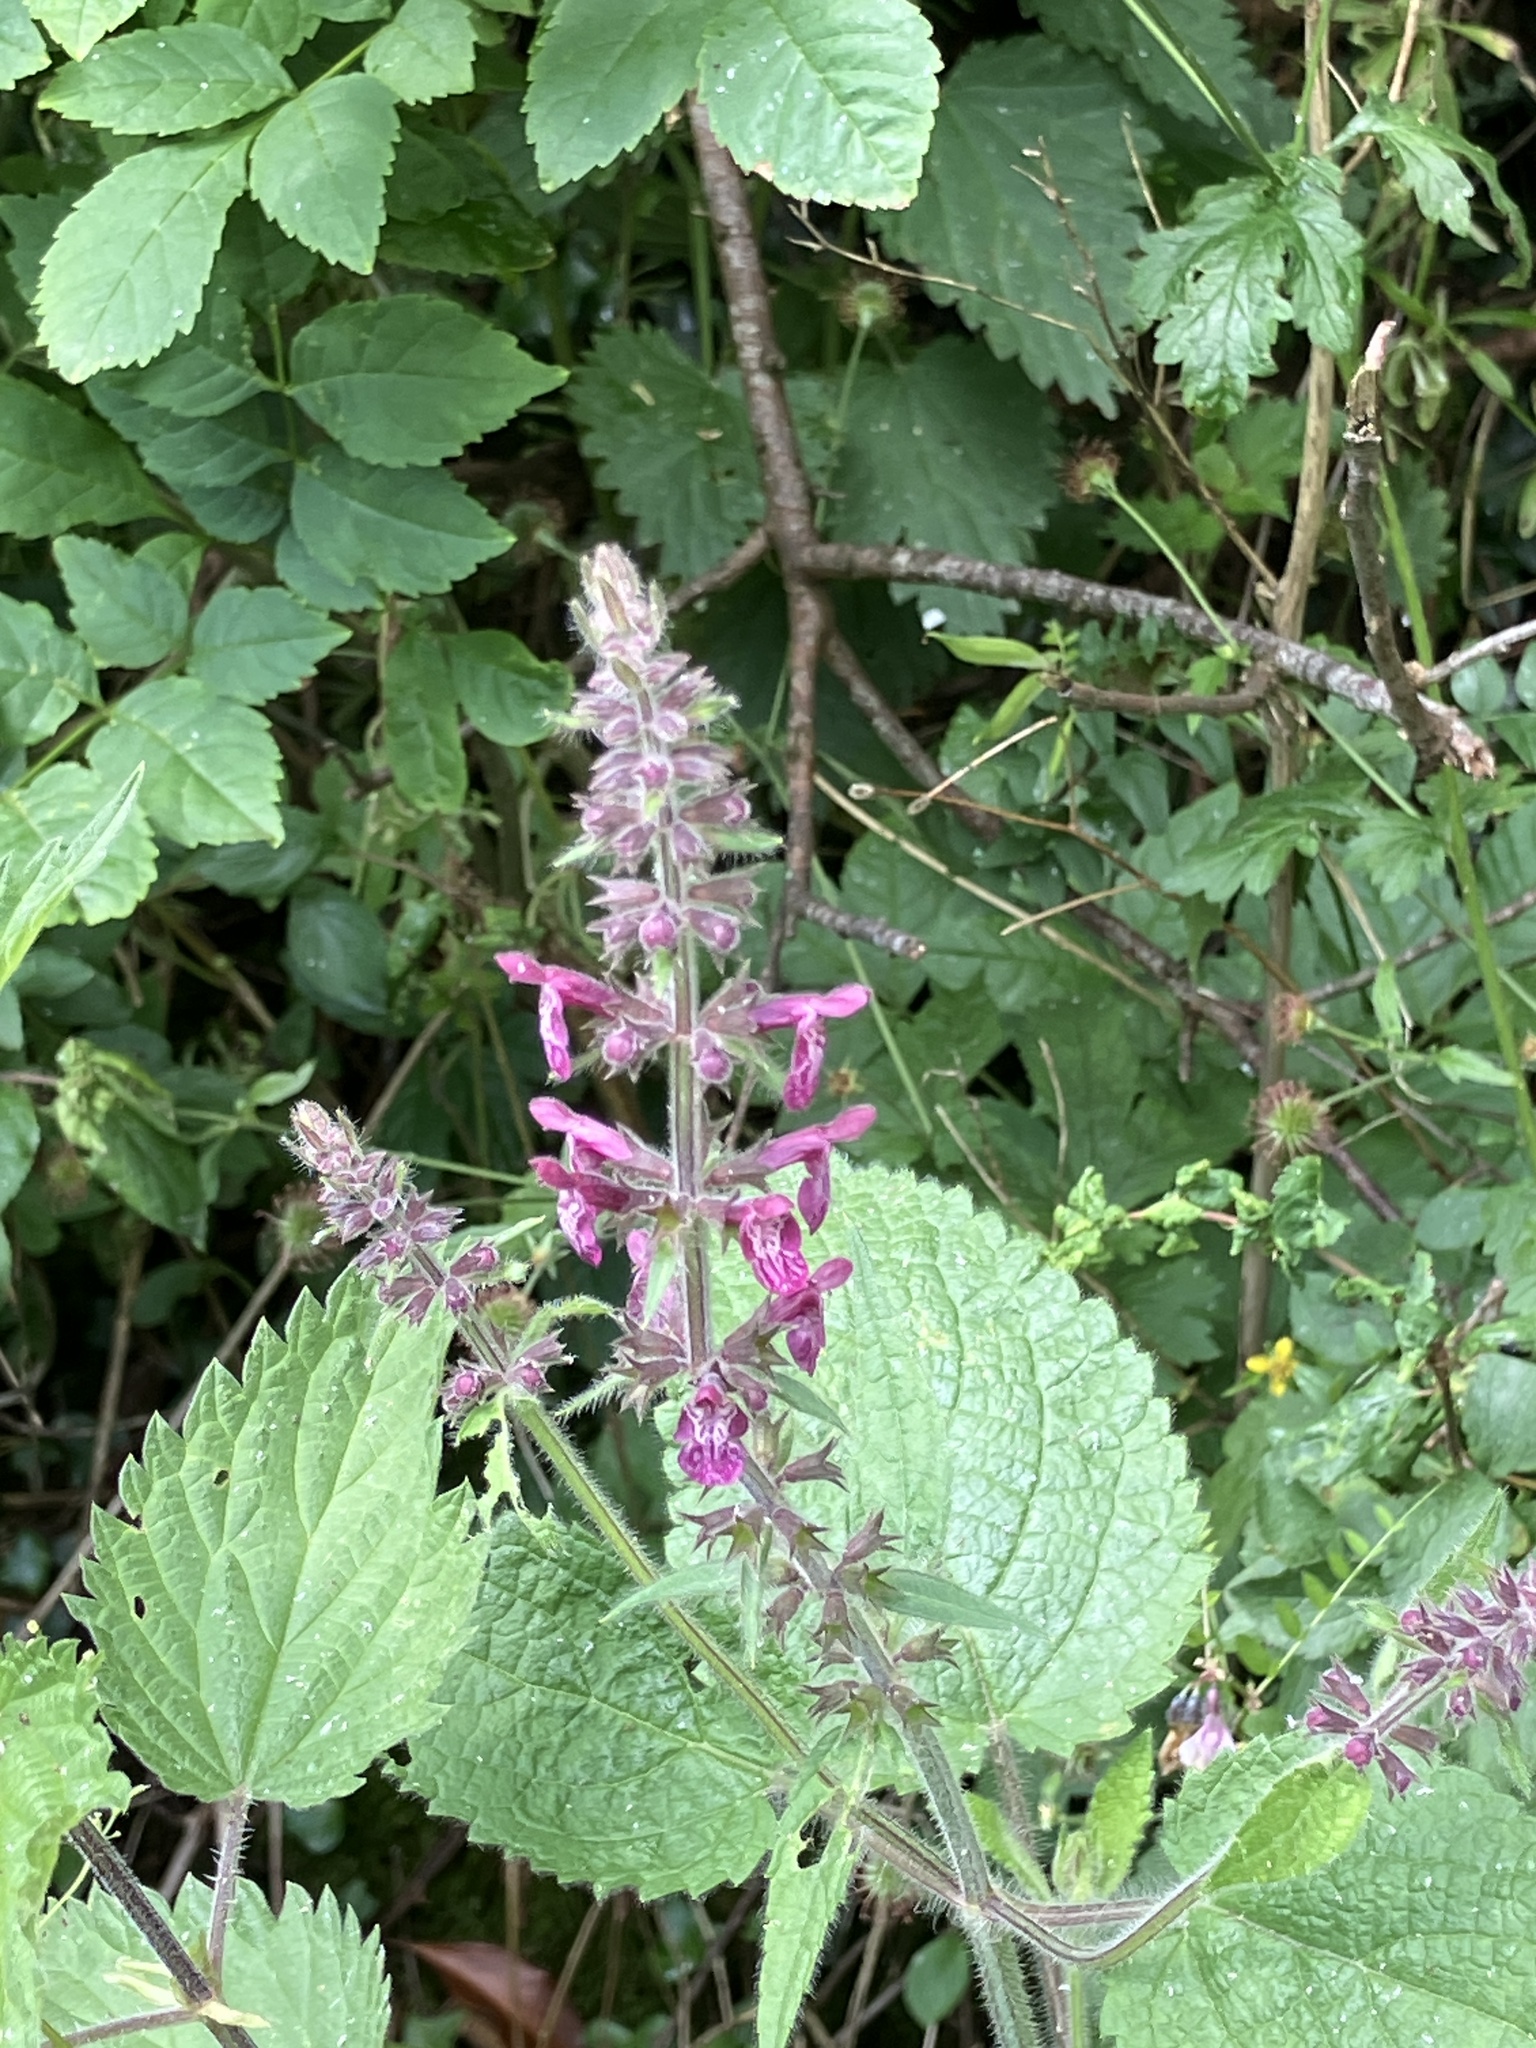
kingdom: Plantae
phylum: Tracheophyta
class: Magnoliopsida
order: Lamiales
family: Lamiaceae
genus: Stachys
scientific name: Stachys sylvatica
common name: Hedge woundwort
